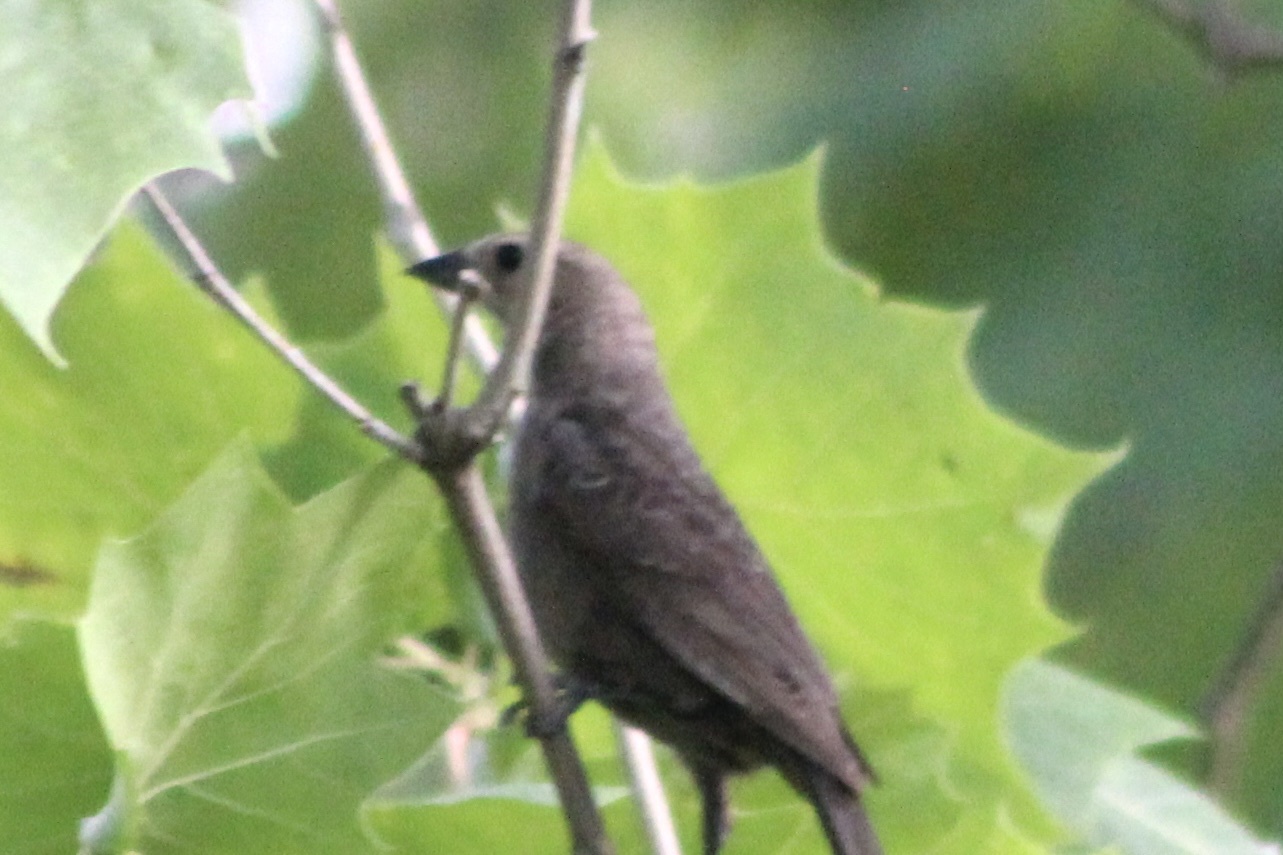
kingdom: Animalia
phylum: Chordata
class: Aves
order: Passeriformes
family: Icteridae
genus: Molothrus
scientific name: Molothrus ater
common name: Brown-headed cowbird
